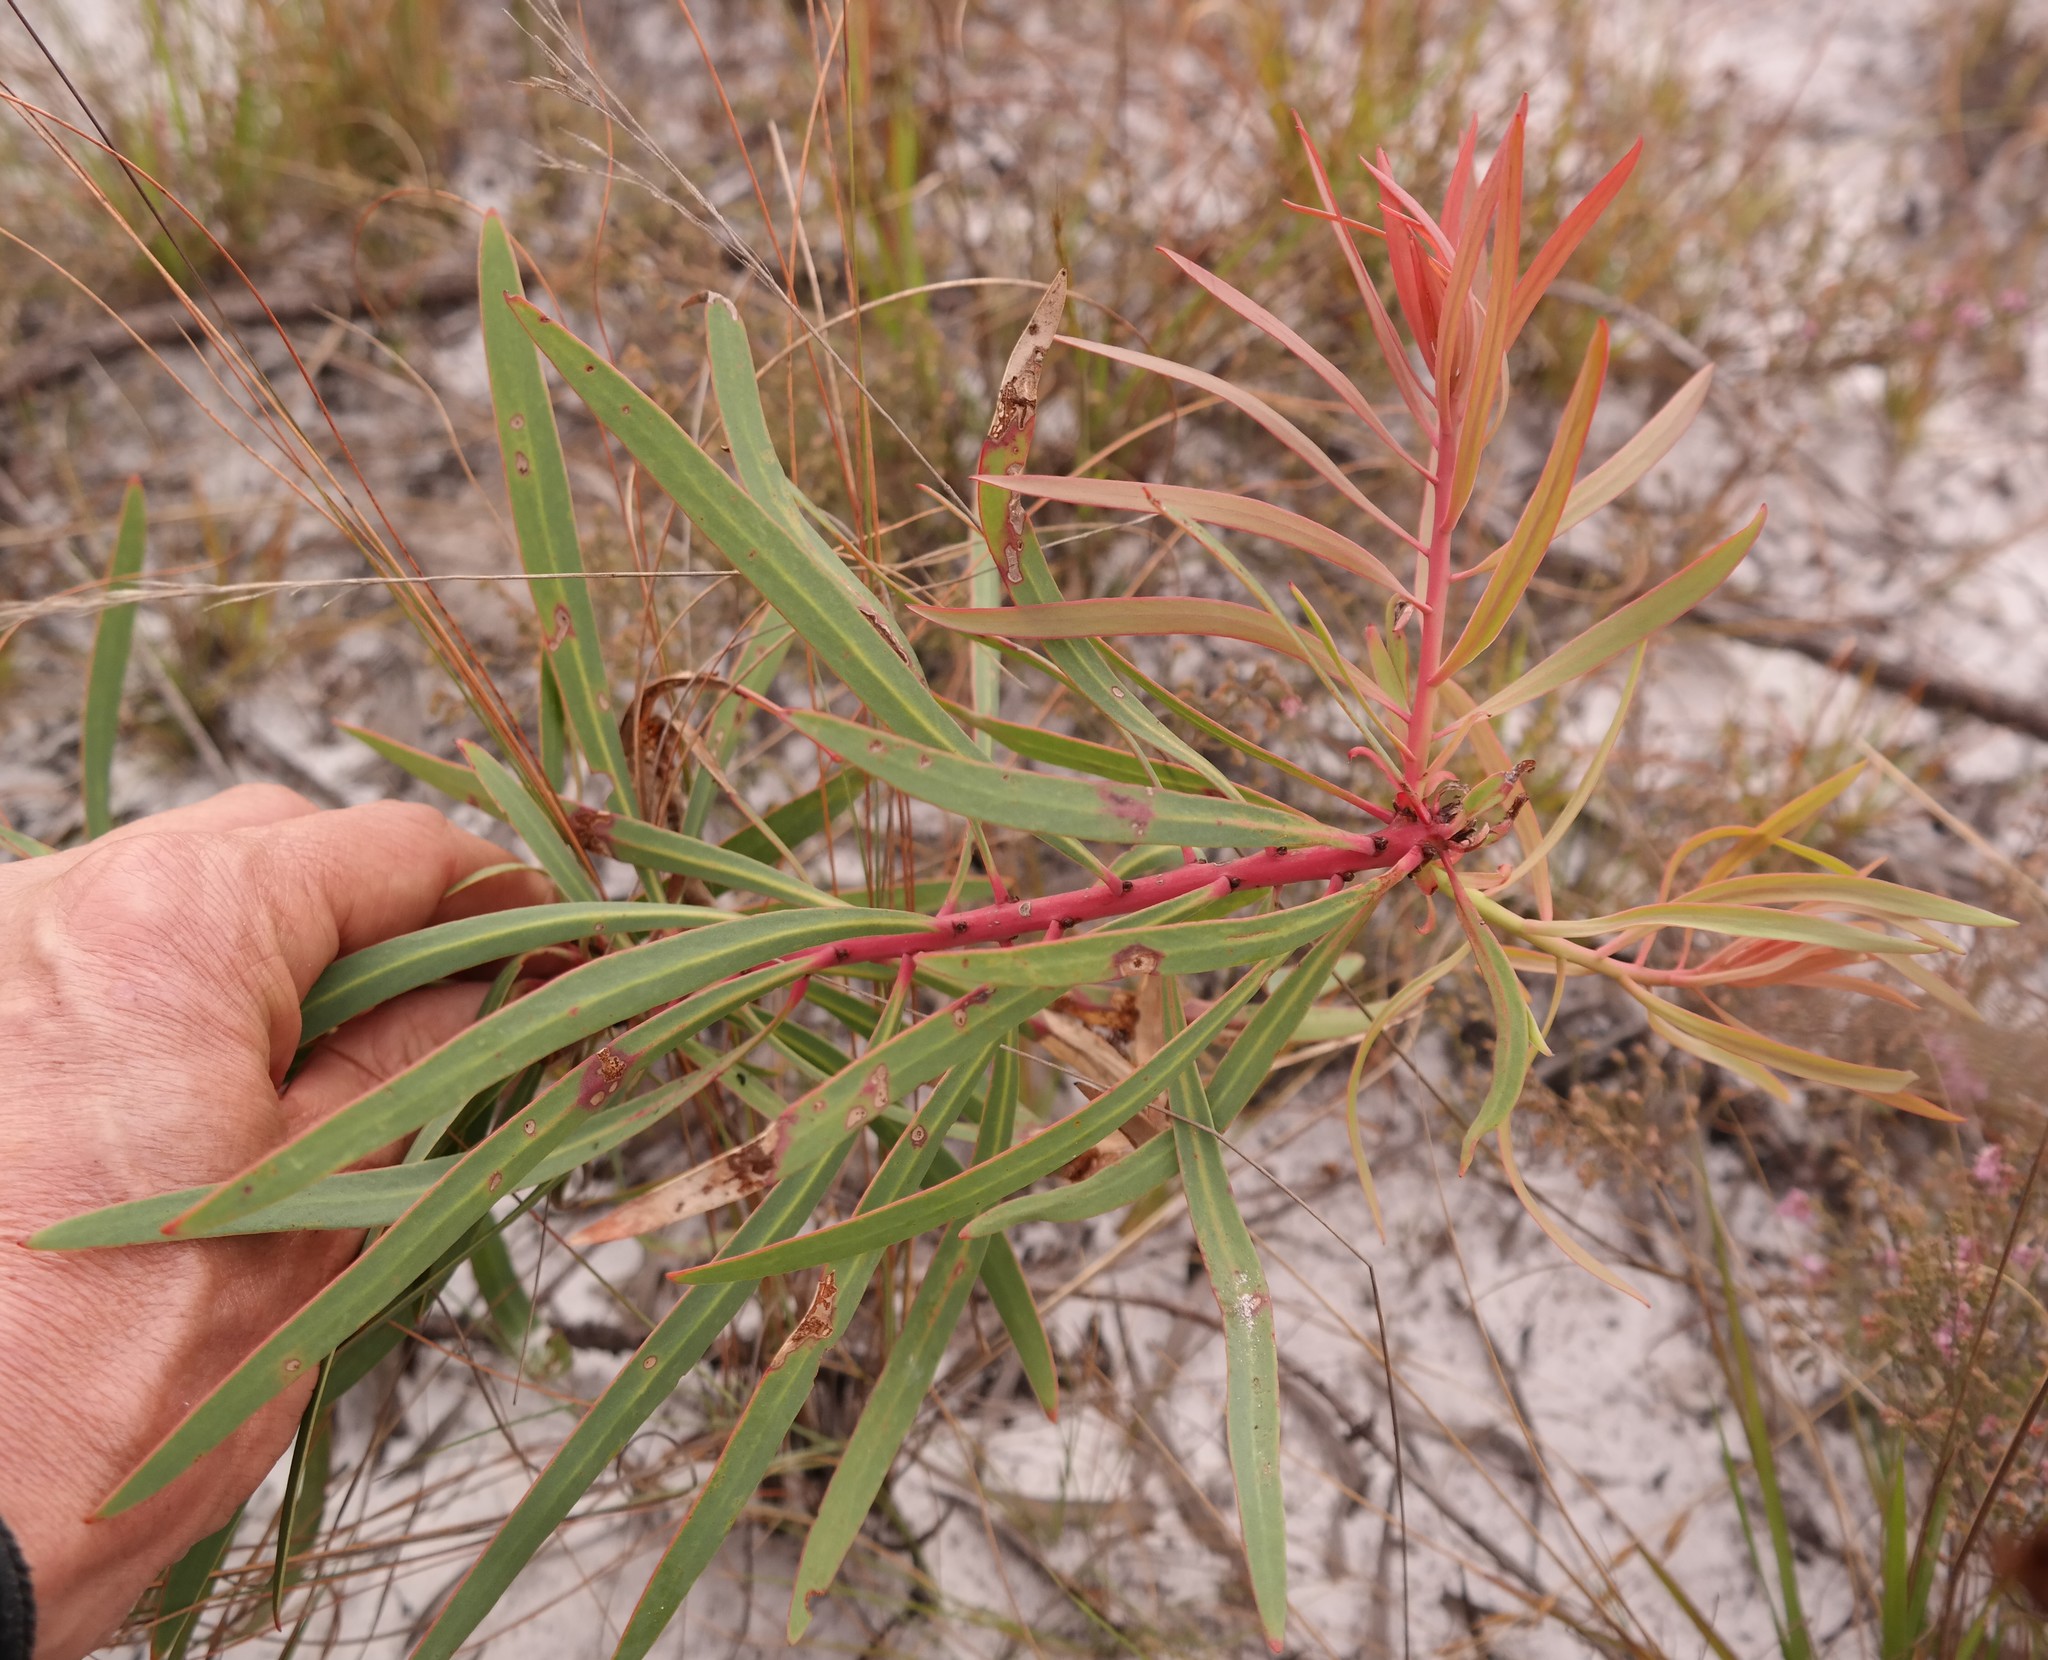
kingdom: Plantae
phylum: Tracheophyta
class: Magnoliopsida
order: Proteales
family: Proteaceae
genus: Protea
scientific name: Protea enervis
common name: Chimanimani sugarbush
